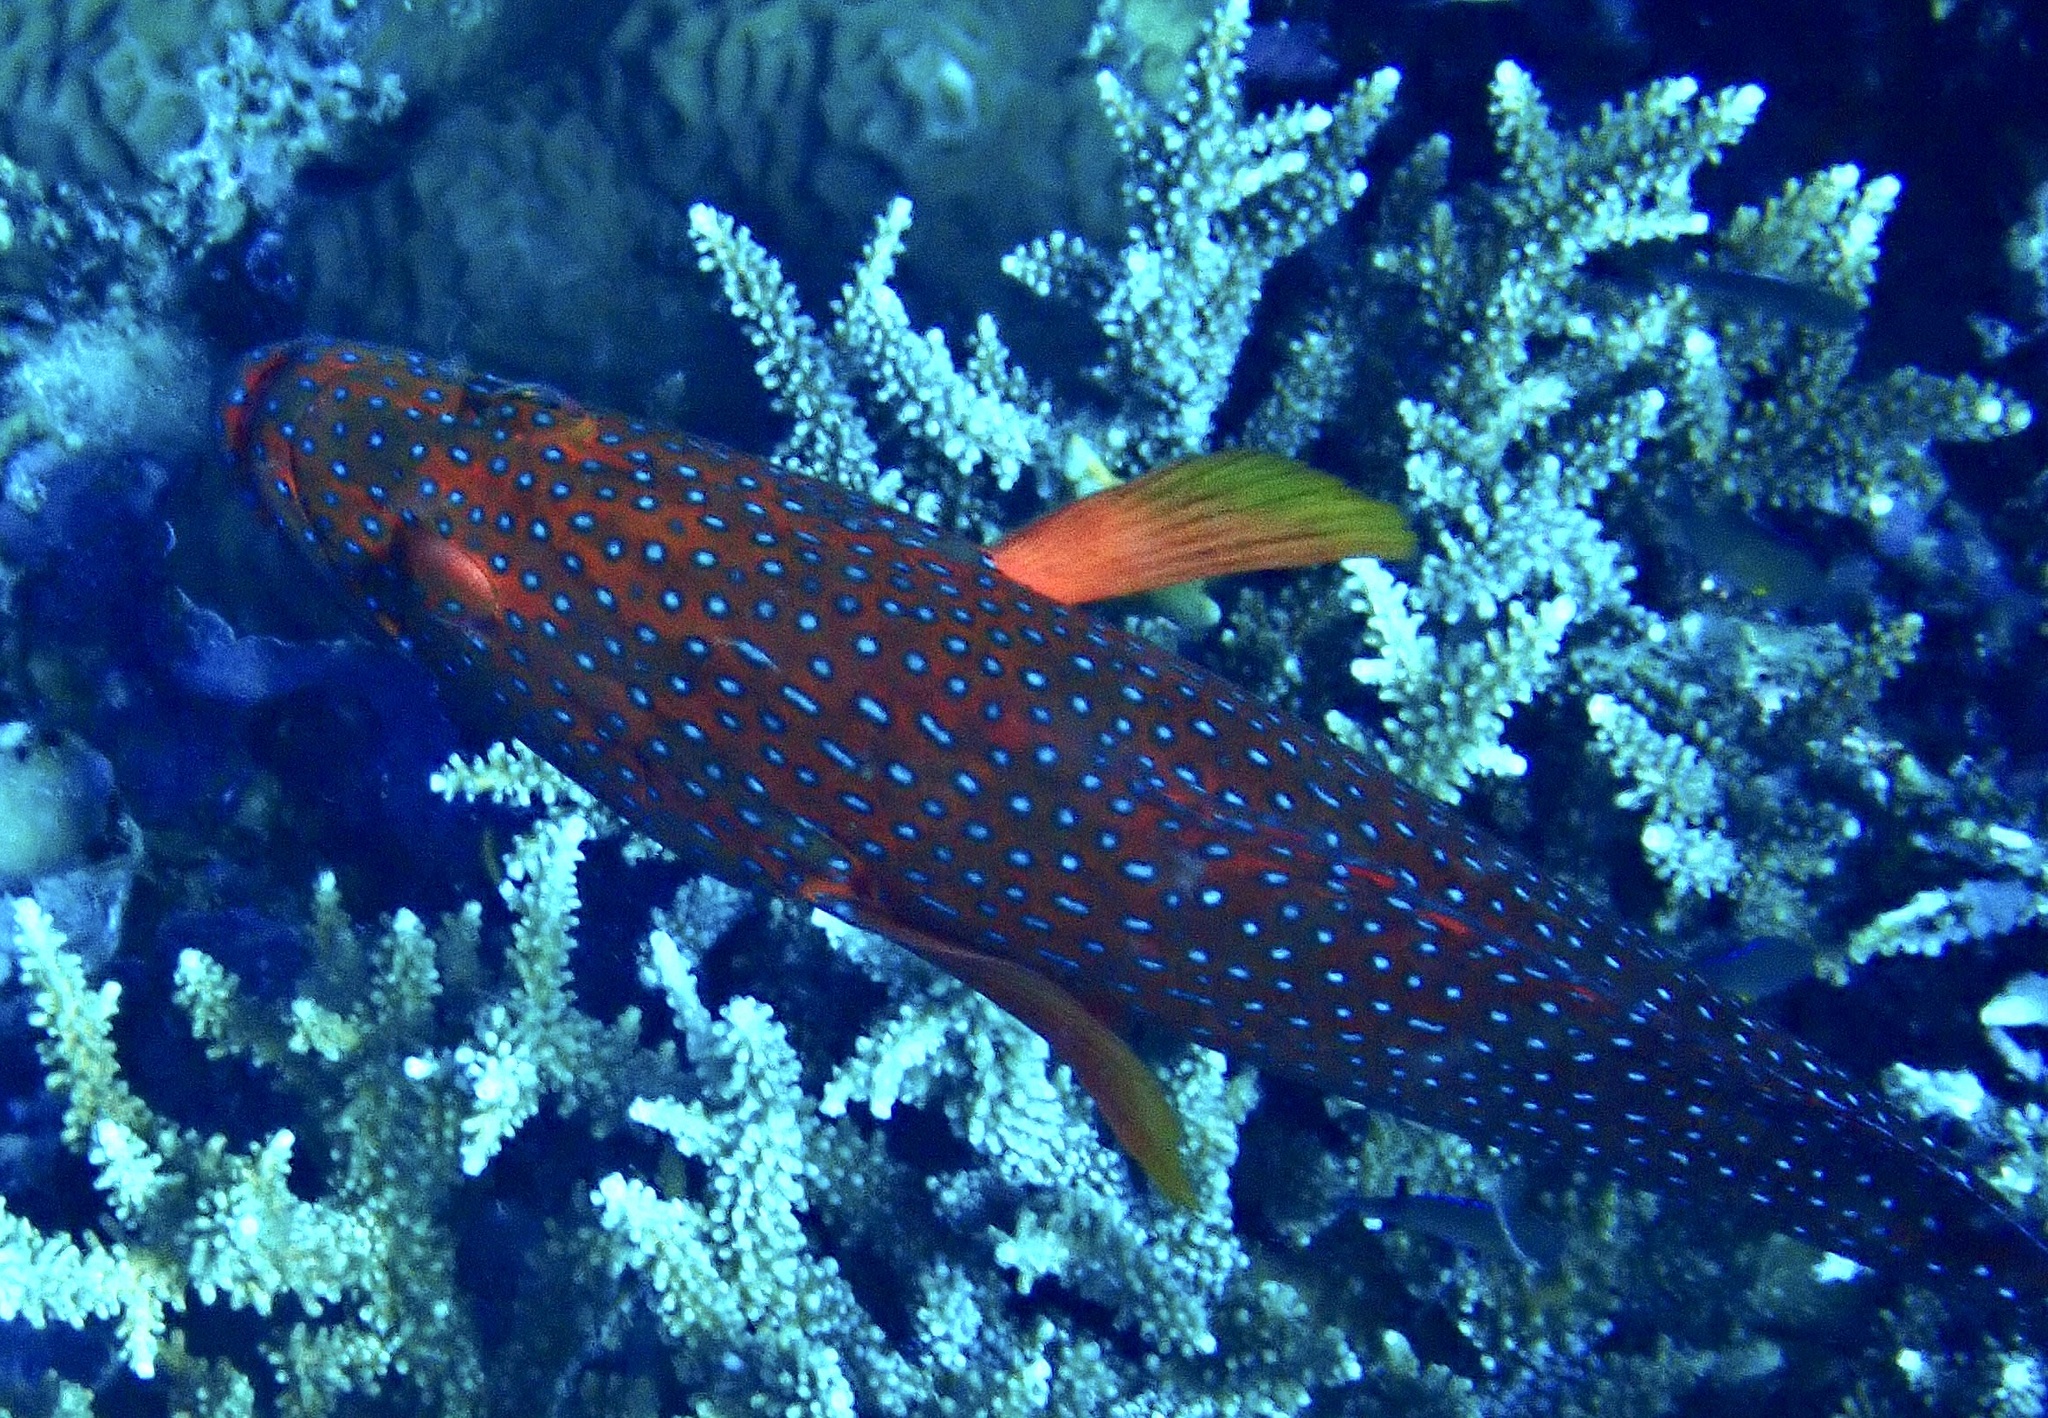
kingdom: Animalia
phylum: Chordata
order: Perciformes
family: Serranidae
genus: Cephalopholis
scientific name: Cephalopholis miniata
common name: Coral hind
